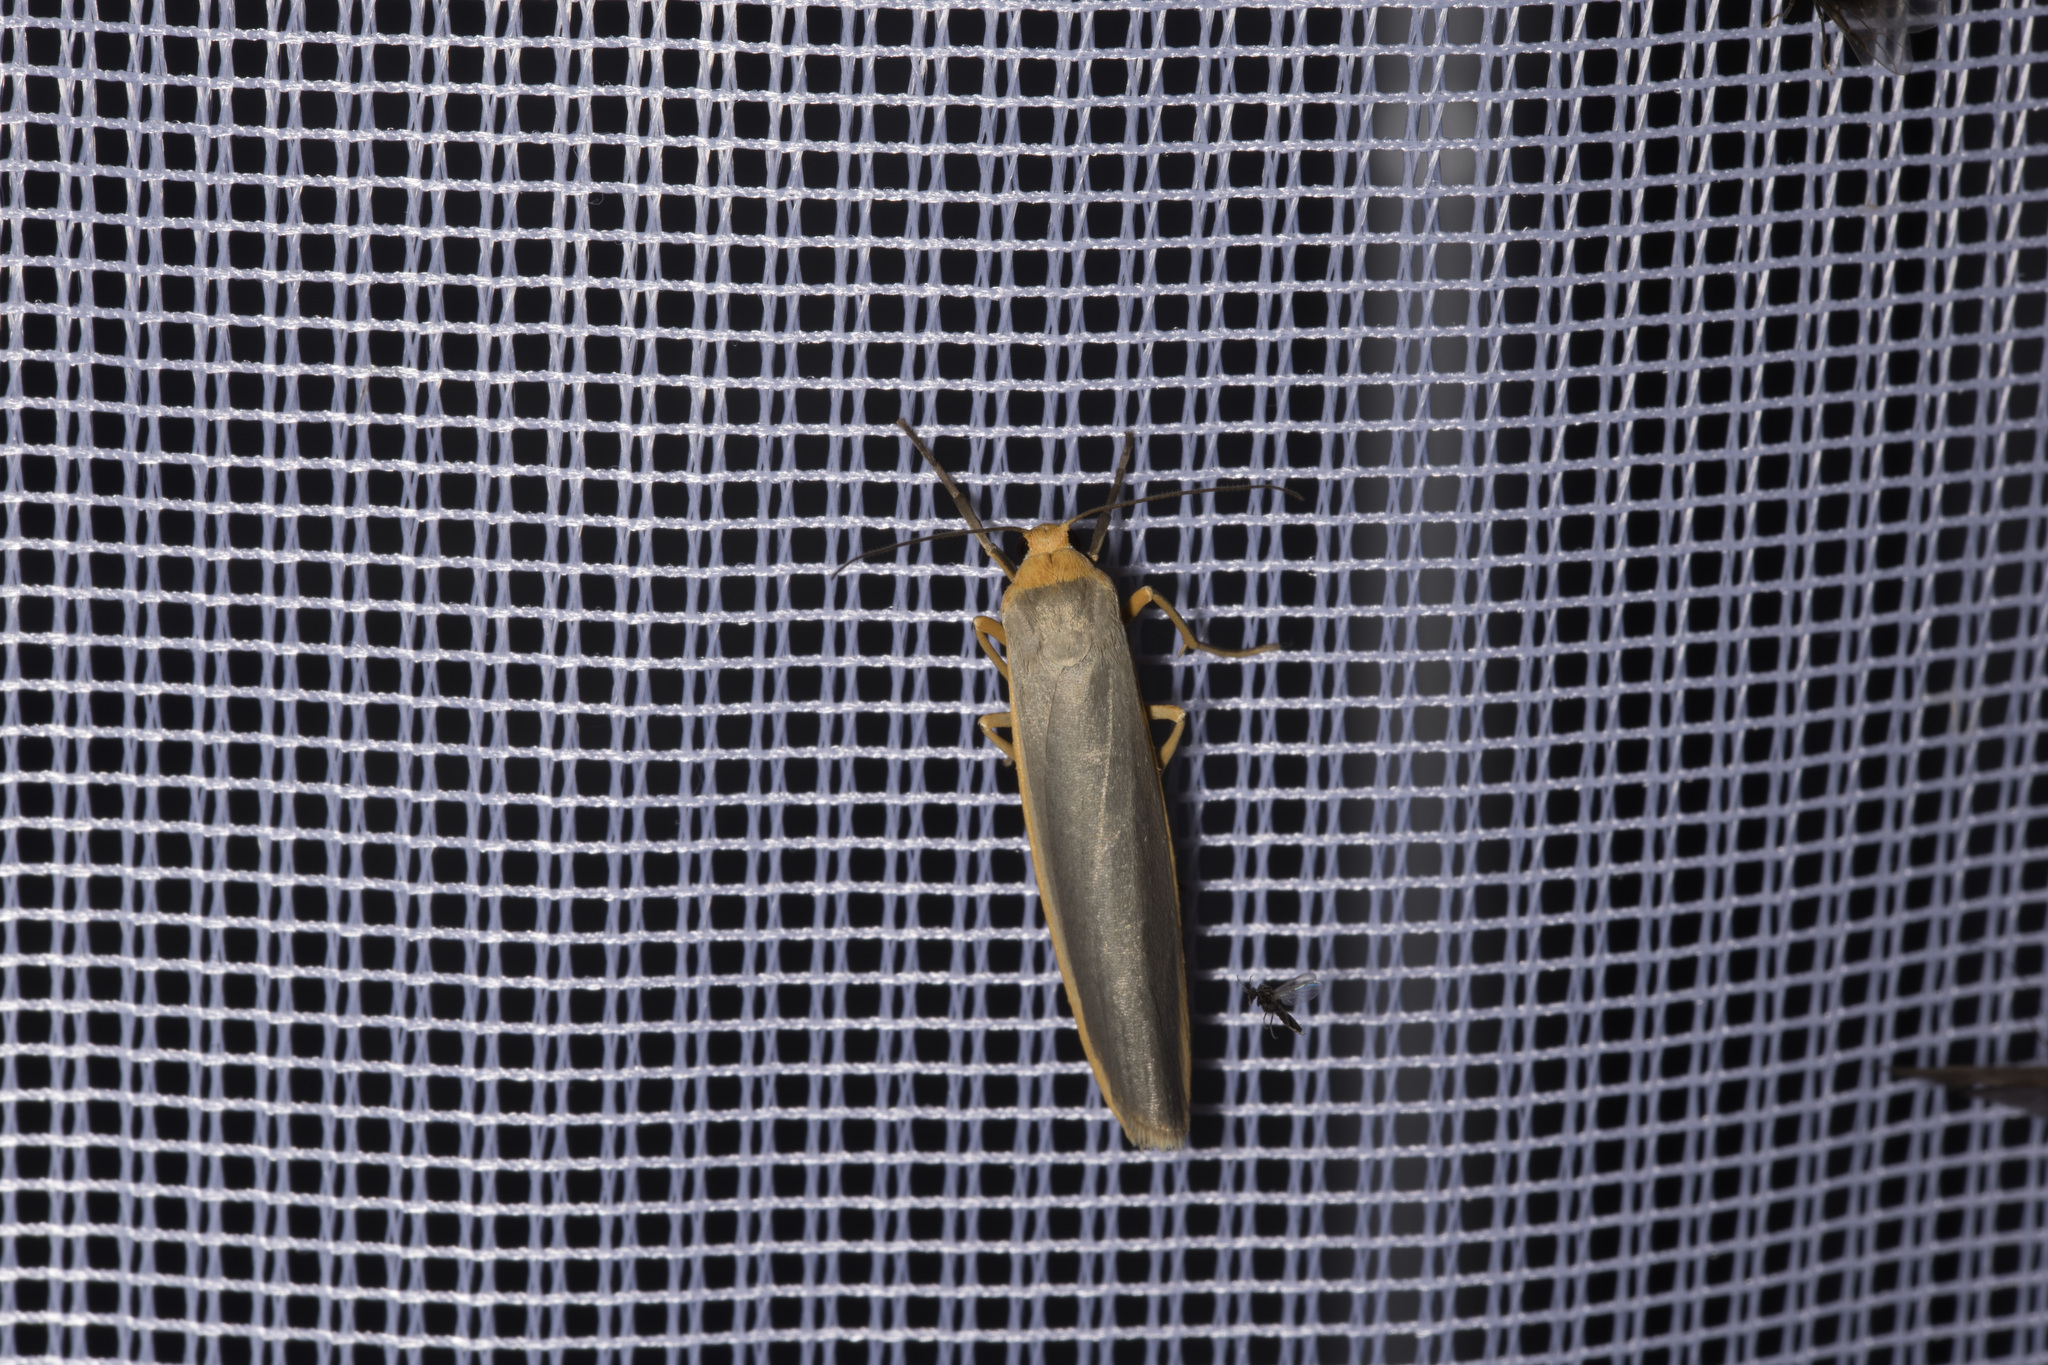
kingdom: Animalia
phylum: Arthropoda
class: Insecta
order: Lepidoptera
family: Erebidae
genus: Manulea
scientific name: Manulea complana
